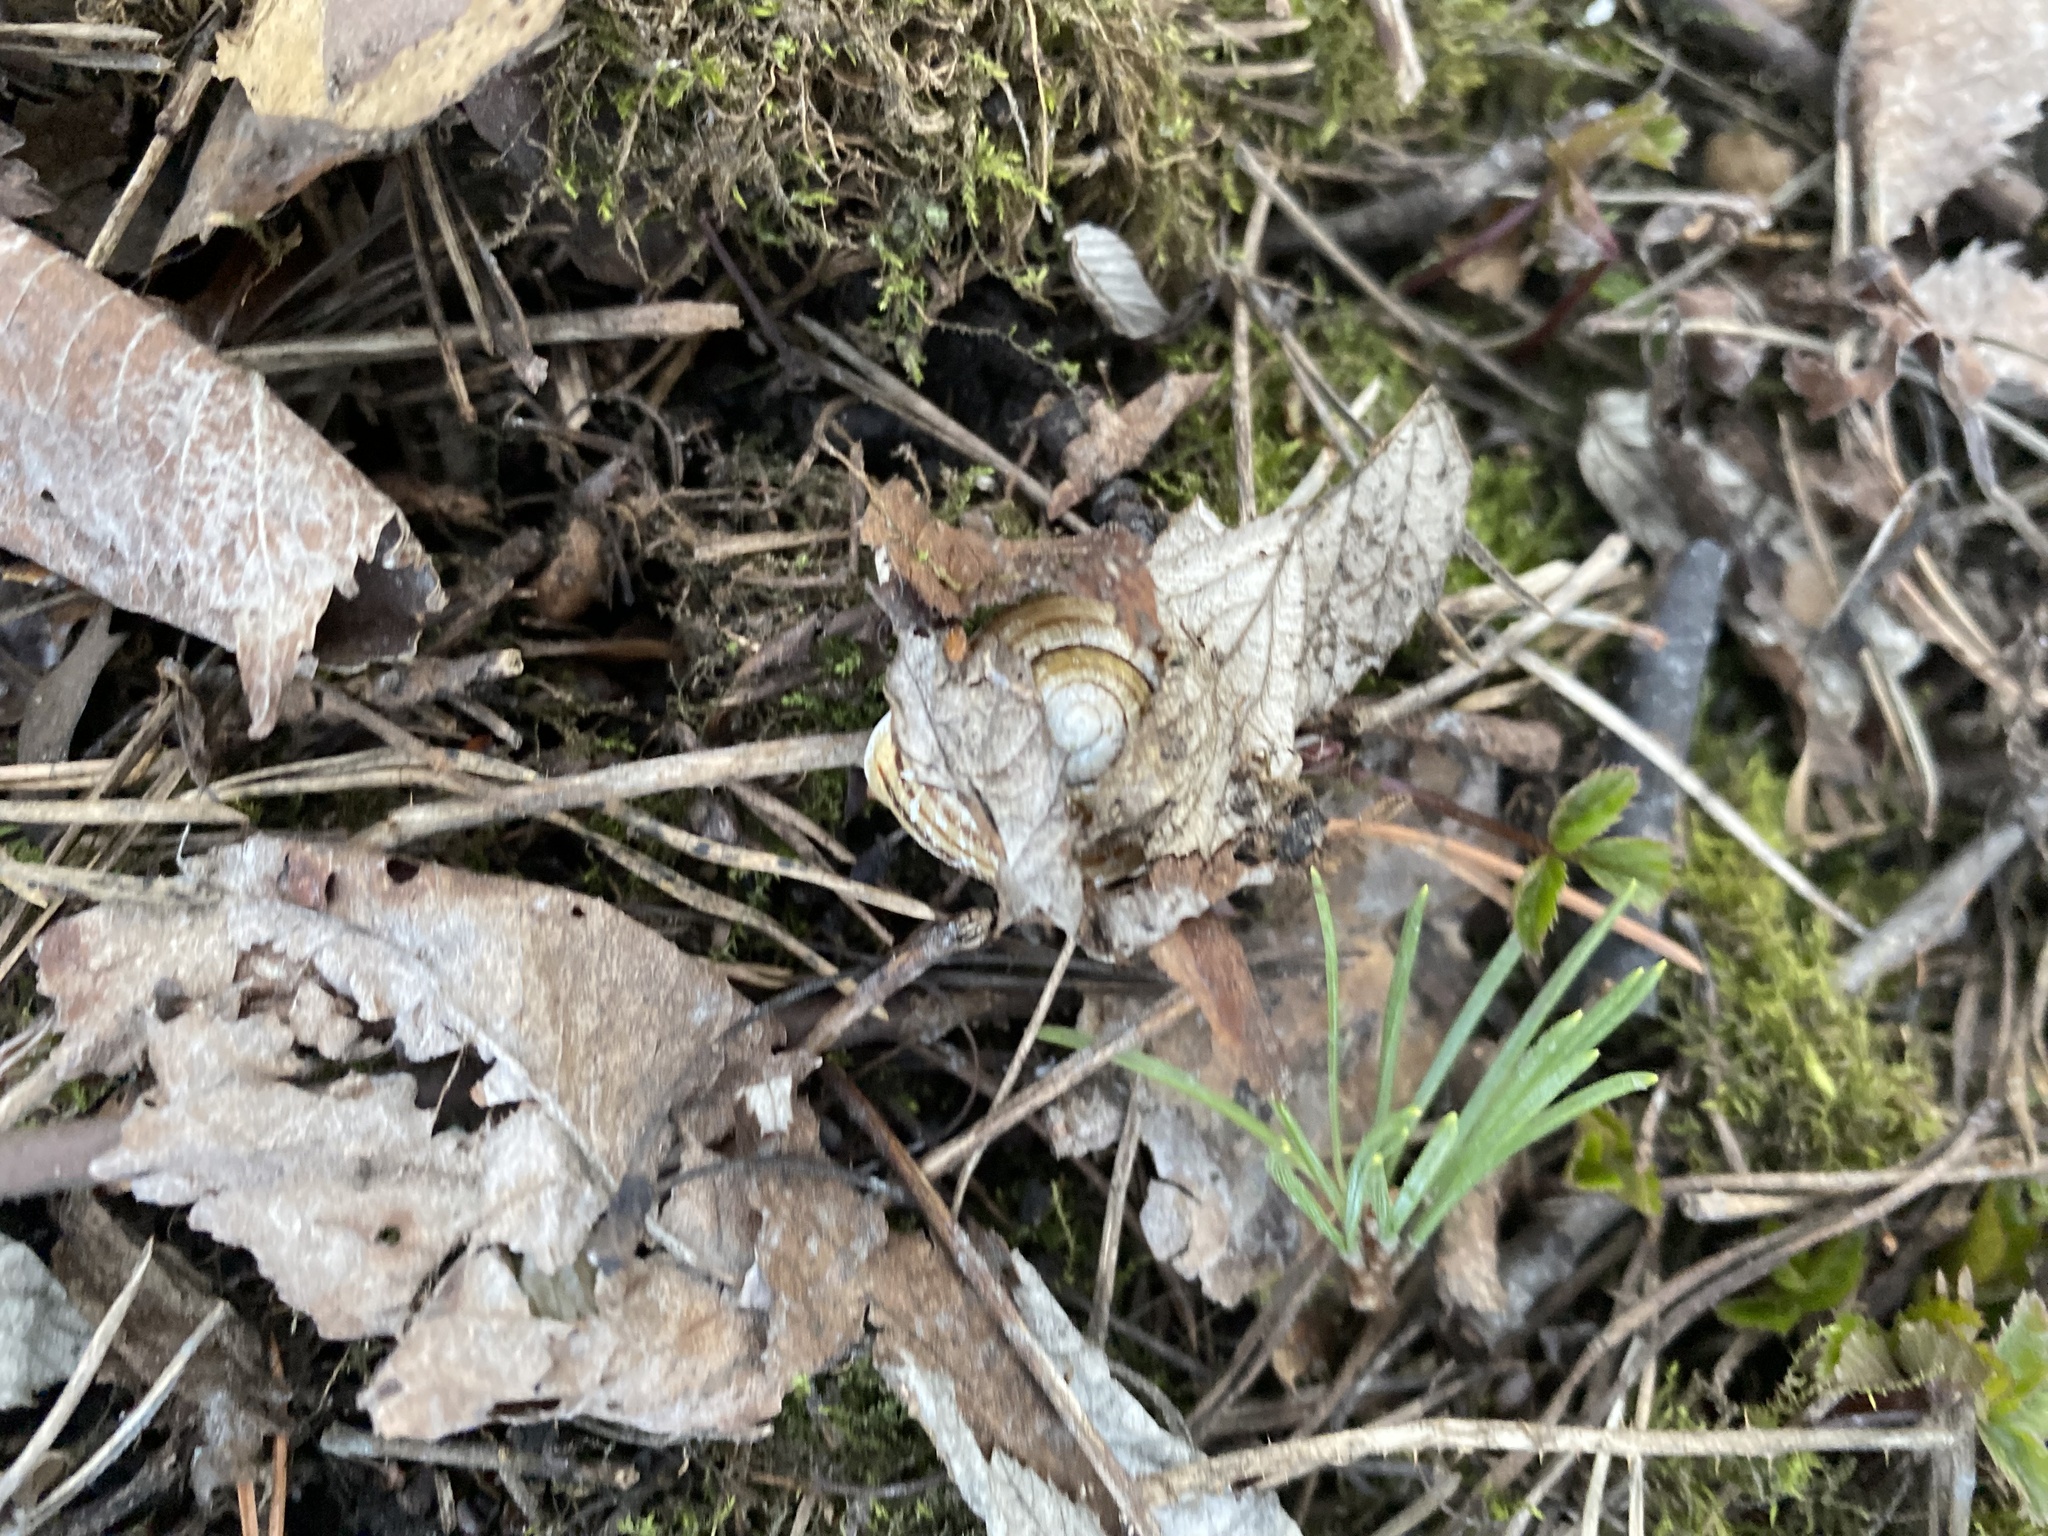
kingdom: Animalia
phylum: Mollusca
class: Gastropoda
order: Stylommatophora
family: Helicidae
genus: Cepaea
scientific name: Cepaea hortensis
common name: White-lip gardensnail
